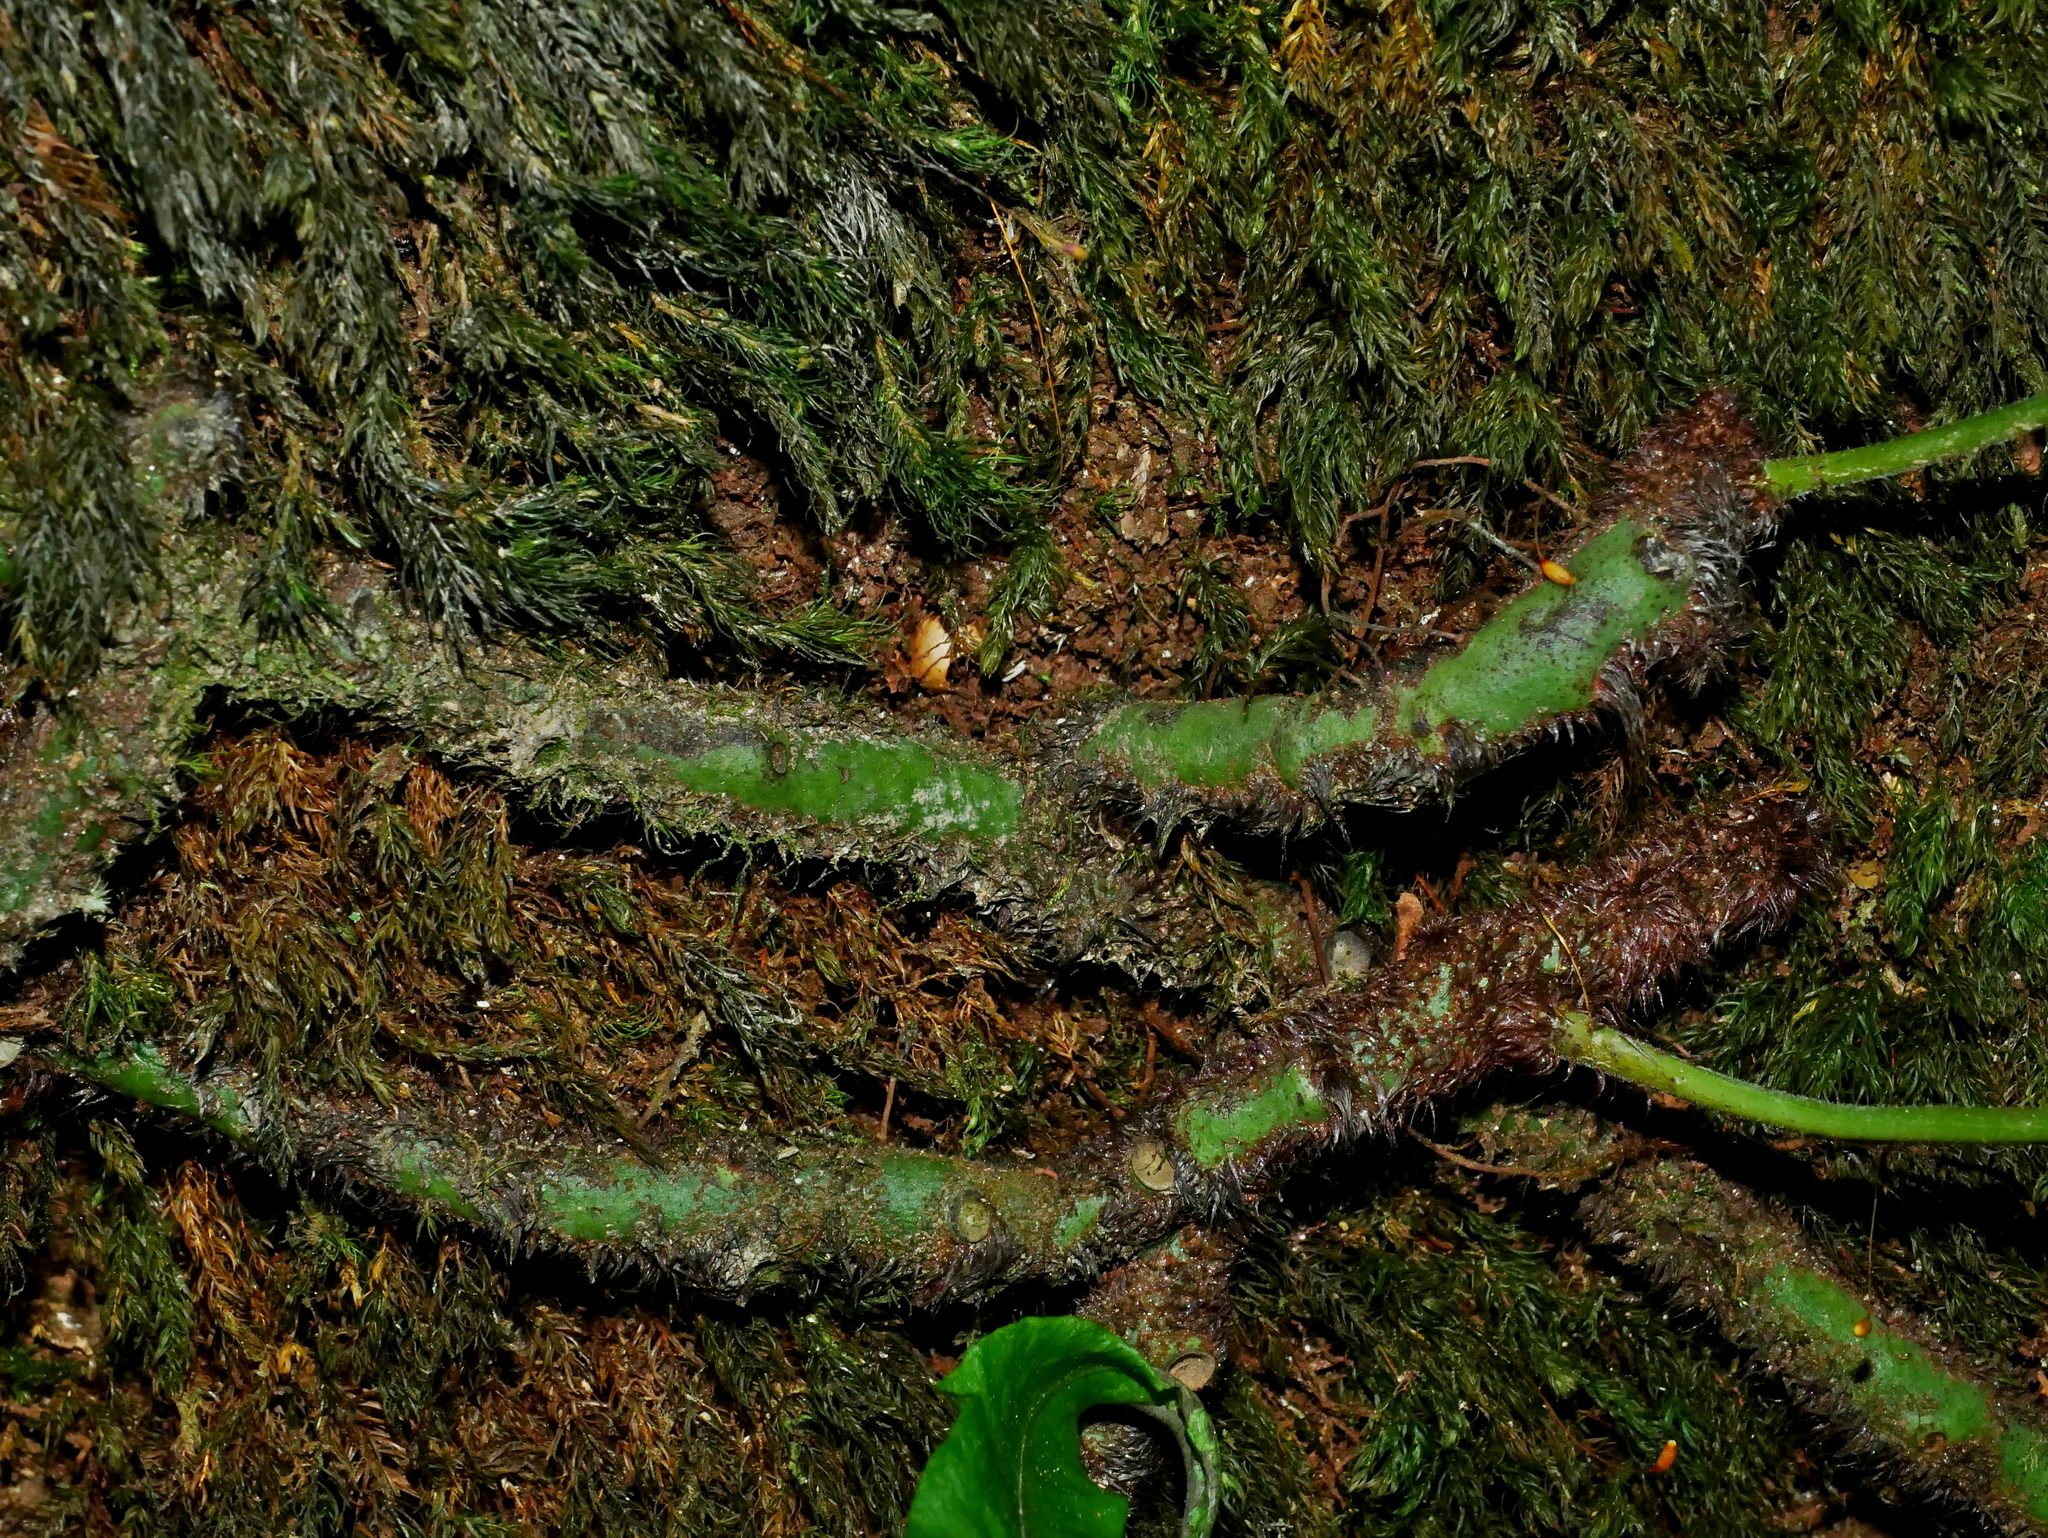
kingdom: Plantae
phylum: Tracheophyta
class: Polypodiopsida
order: Polypodiales
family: Polypodiaceae
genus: Goniophlebium
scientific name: Goniophlebium mengtzeense
